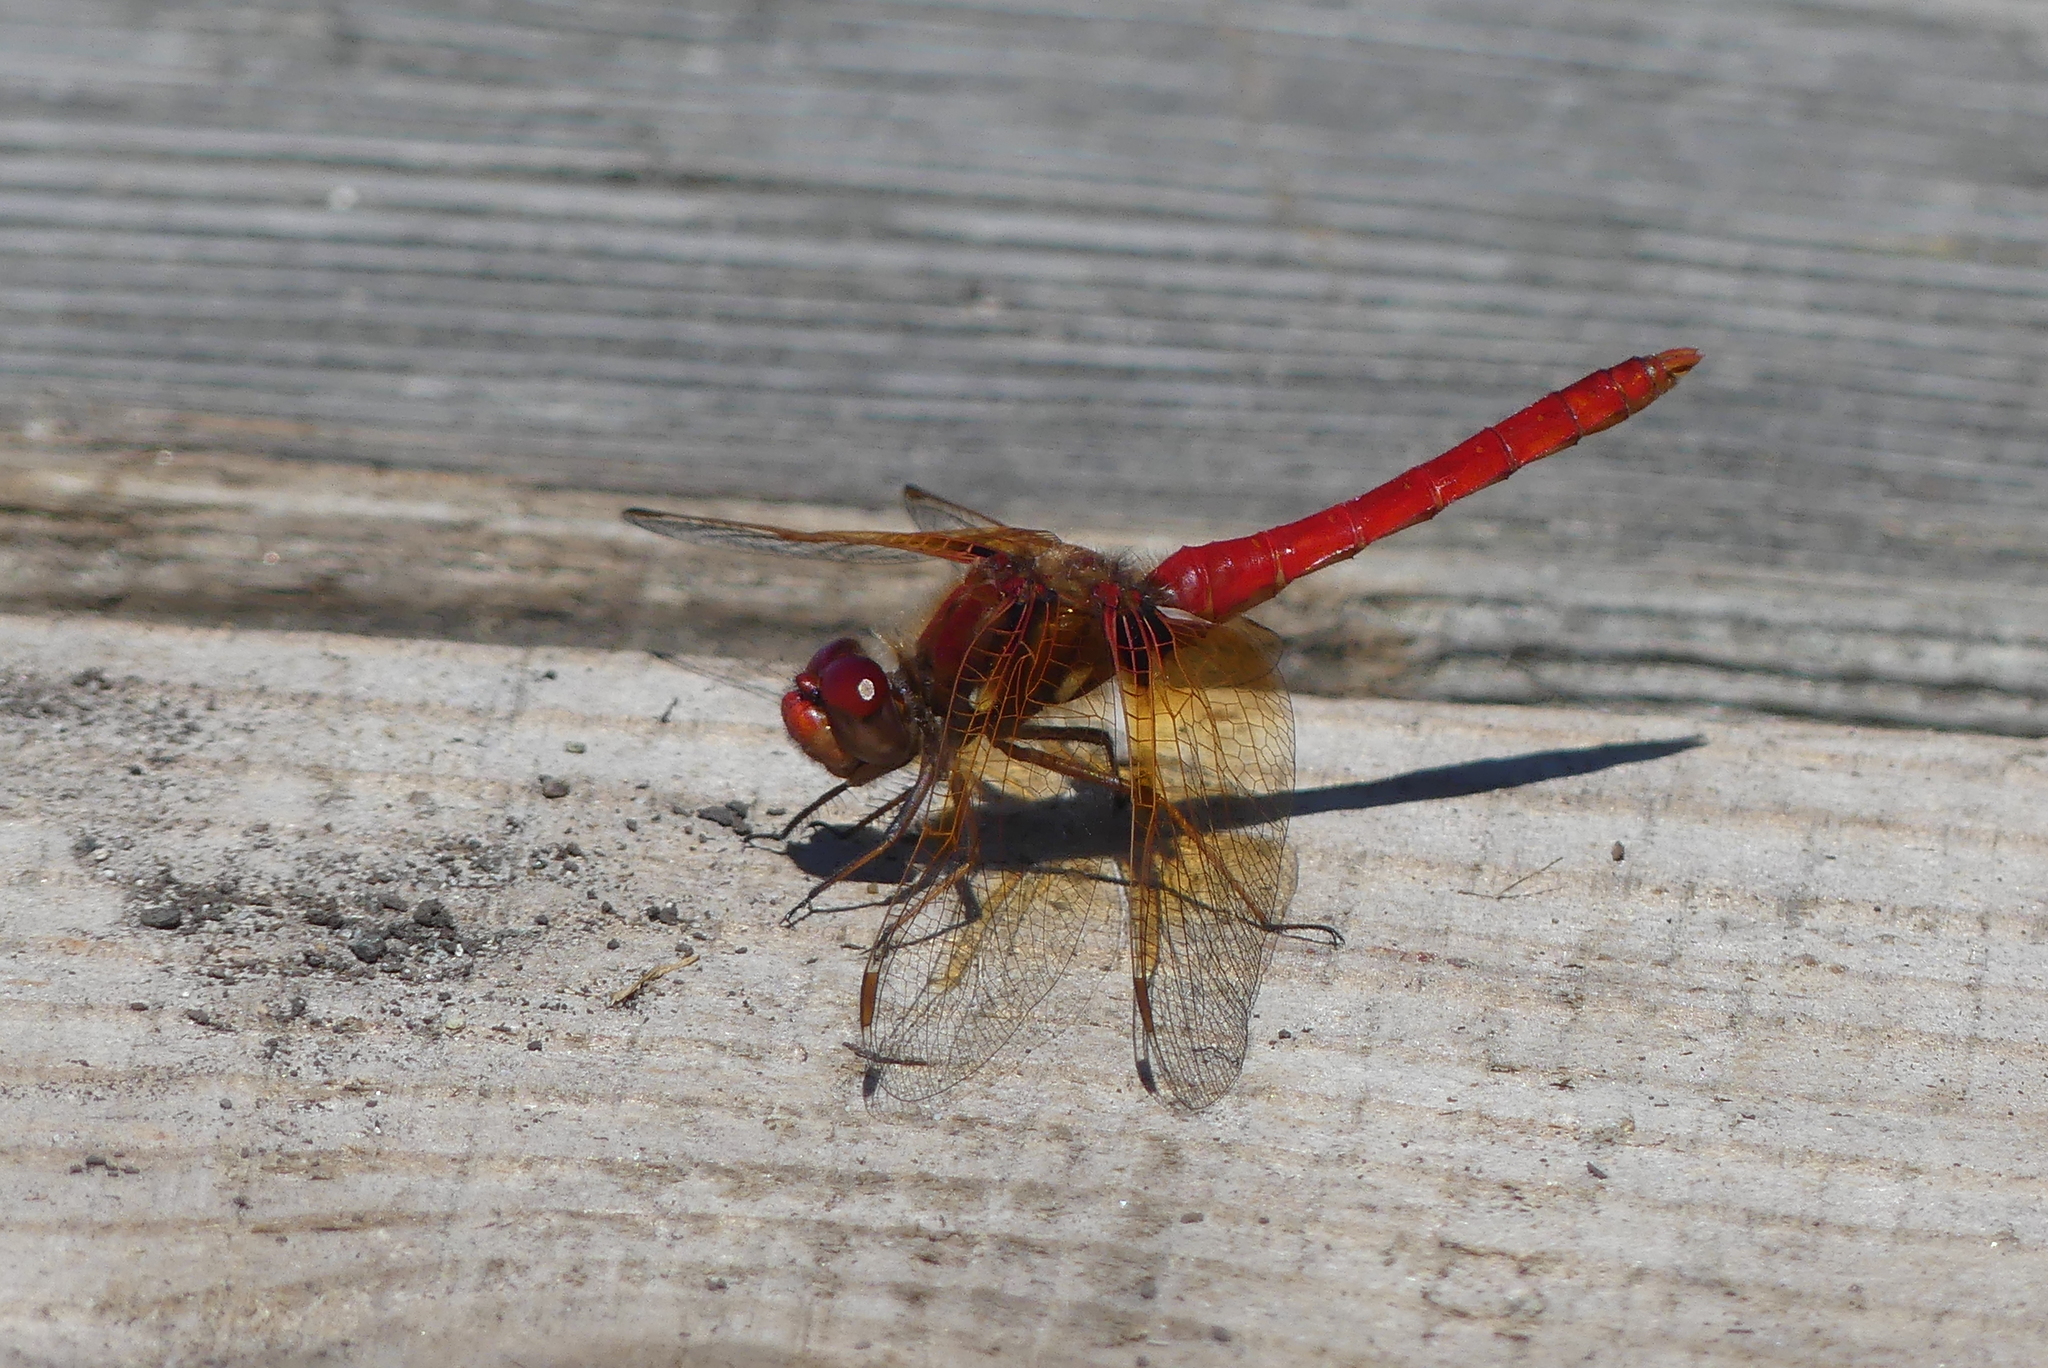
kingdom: Animalia
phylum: Arthropoda
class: Insecta
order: Odonata
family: Libellulidae
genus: Sympetrum
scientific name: Sympetrum illotum
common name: Cardinal meadowhawk
